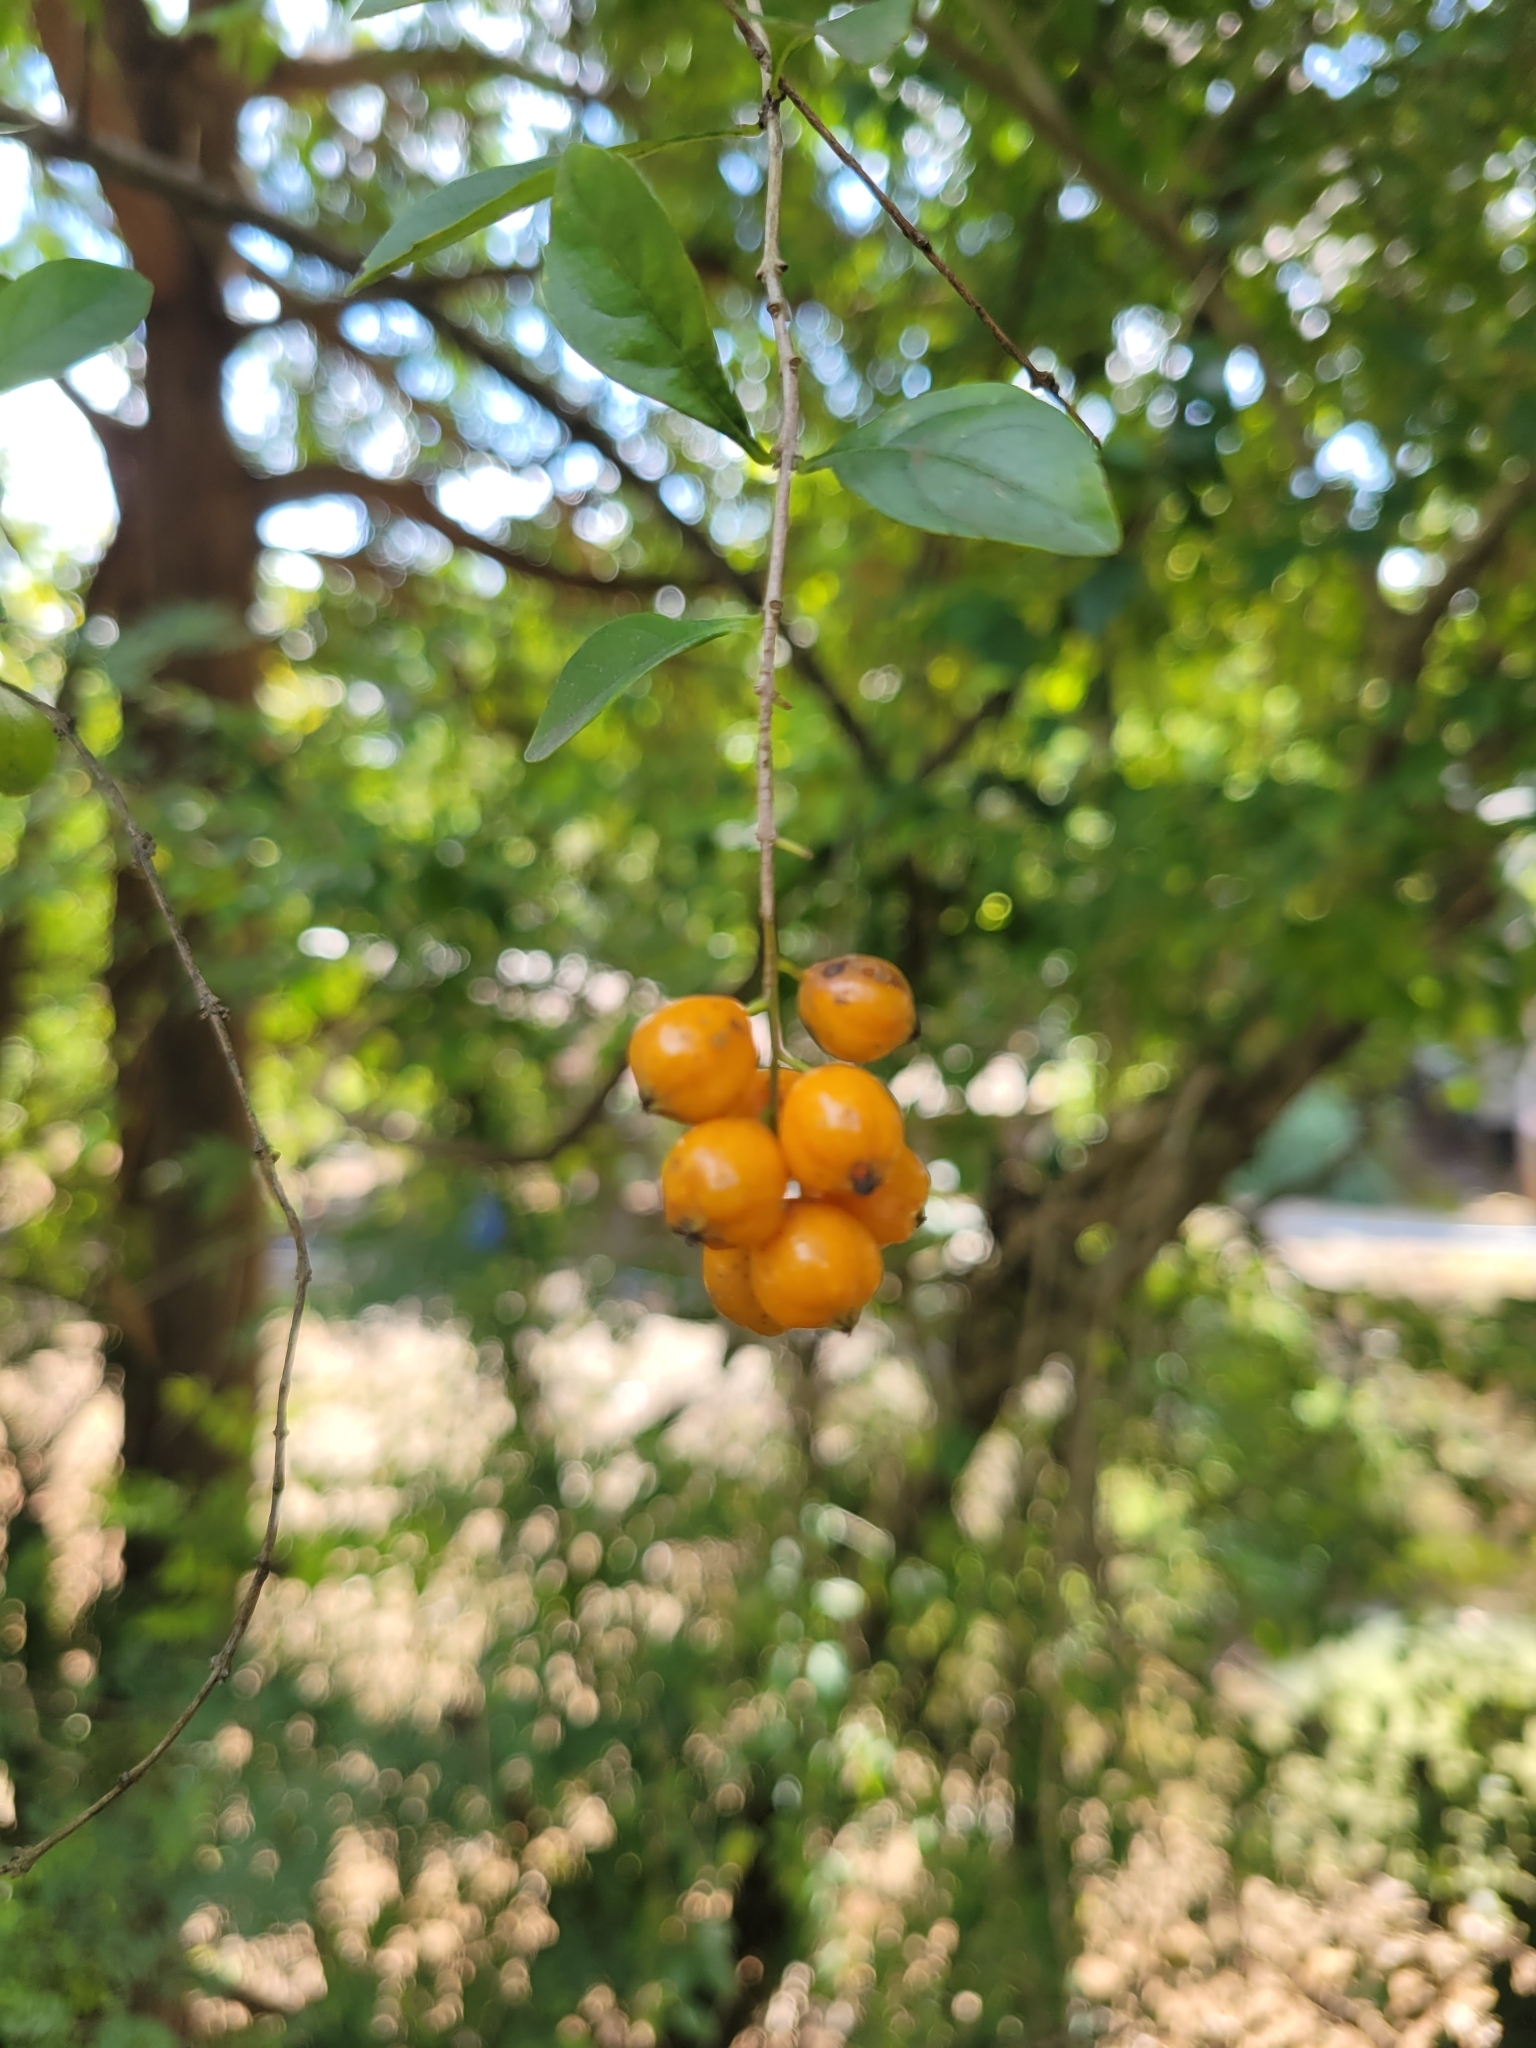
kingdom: Plantae
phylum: Tracheophyta
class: Magnoliopsida
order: Lamiales
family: Verbenaceae
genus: Duranta
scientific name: Duranta erecta
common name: Golden dewdrops
